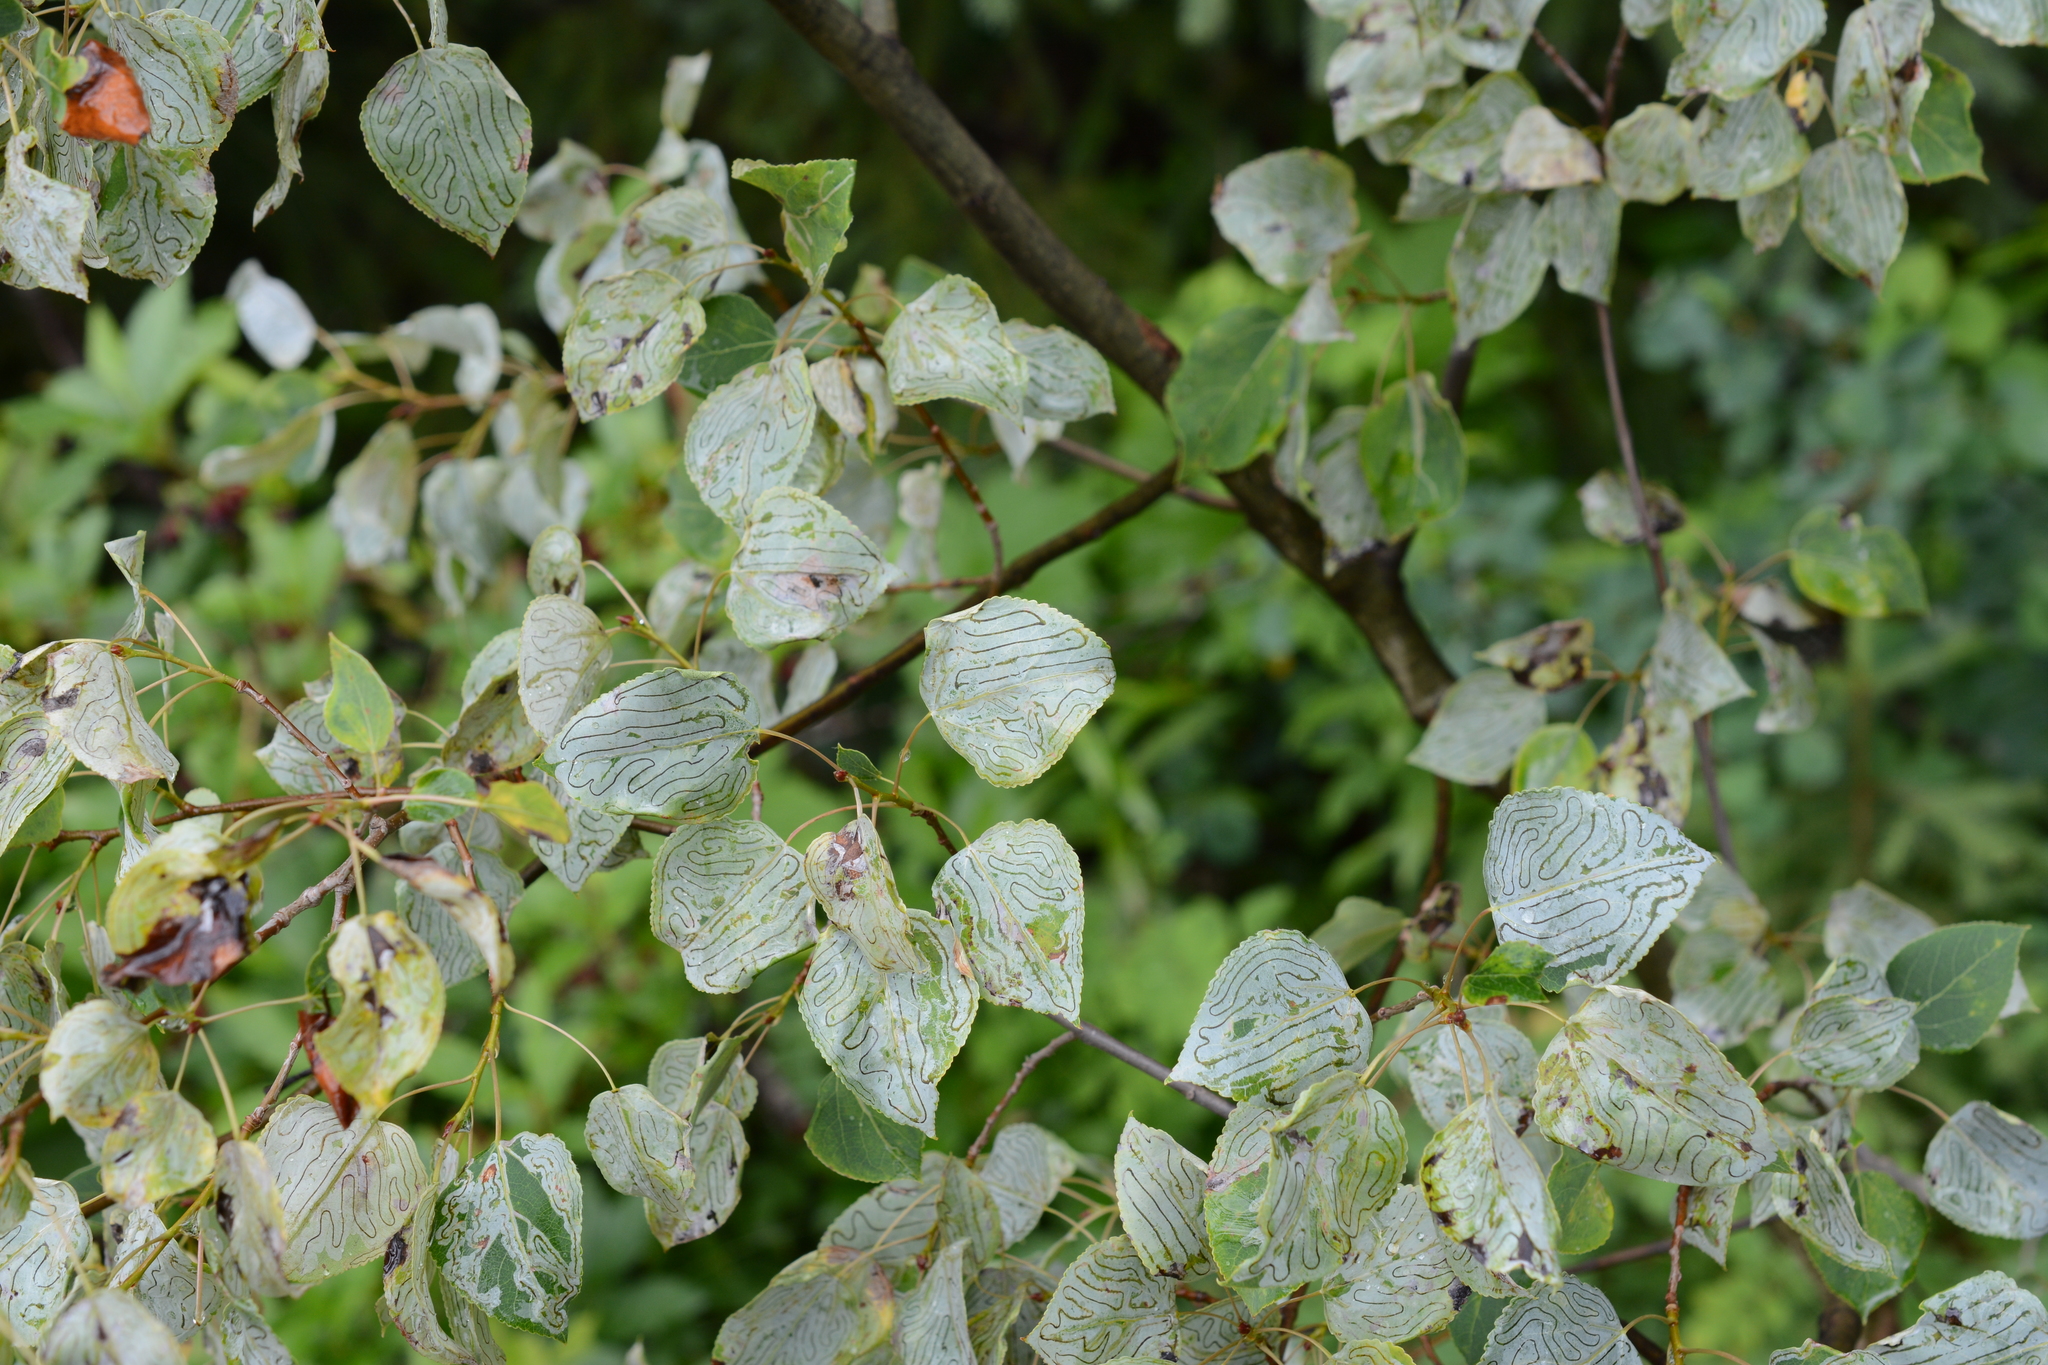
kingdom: Plantae
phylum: Tracheophyta
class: Magnoliopsida
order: Malpighiales
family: Salicaceae
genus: Populus
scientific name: Populus tremuloides
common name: Quaking aspen
